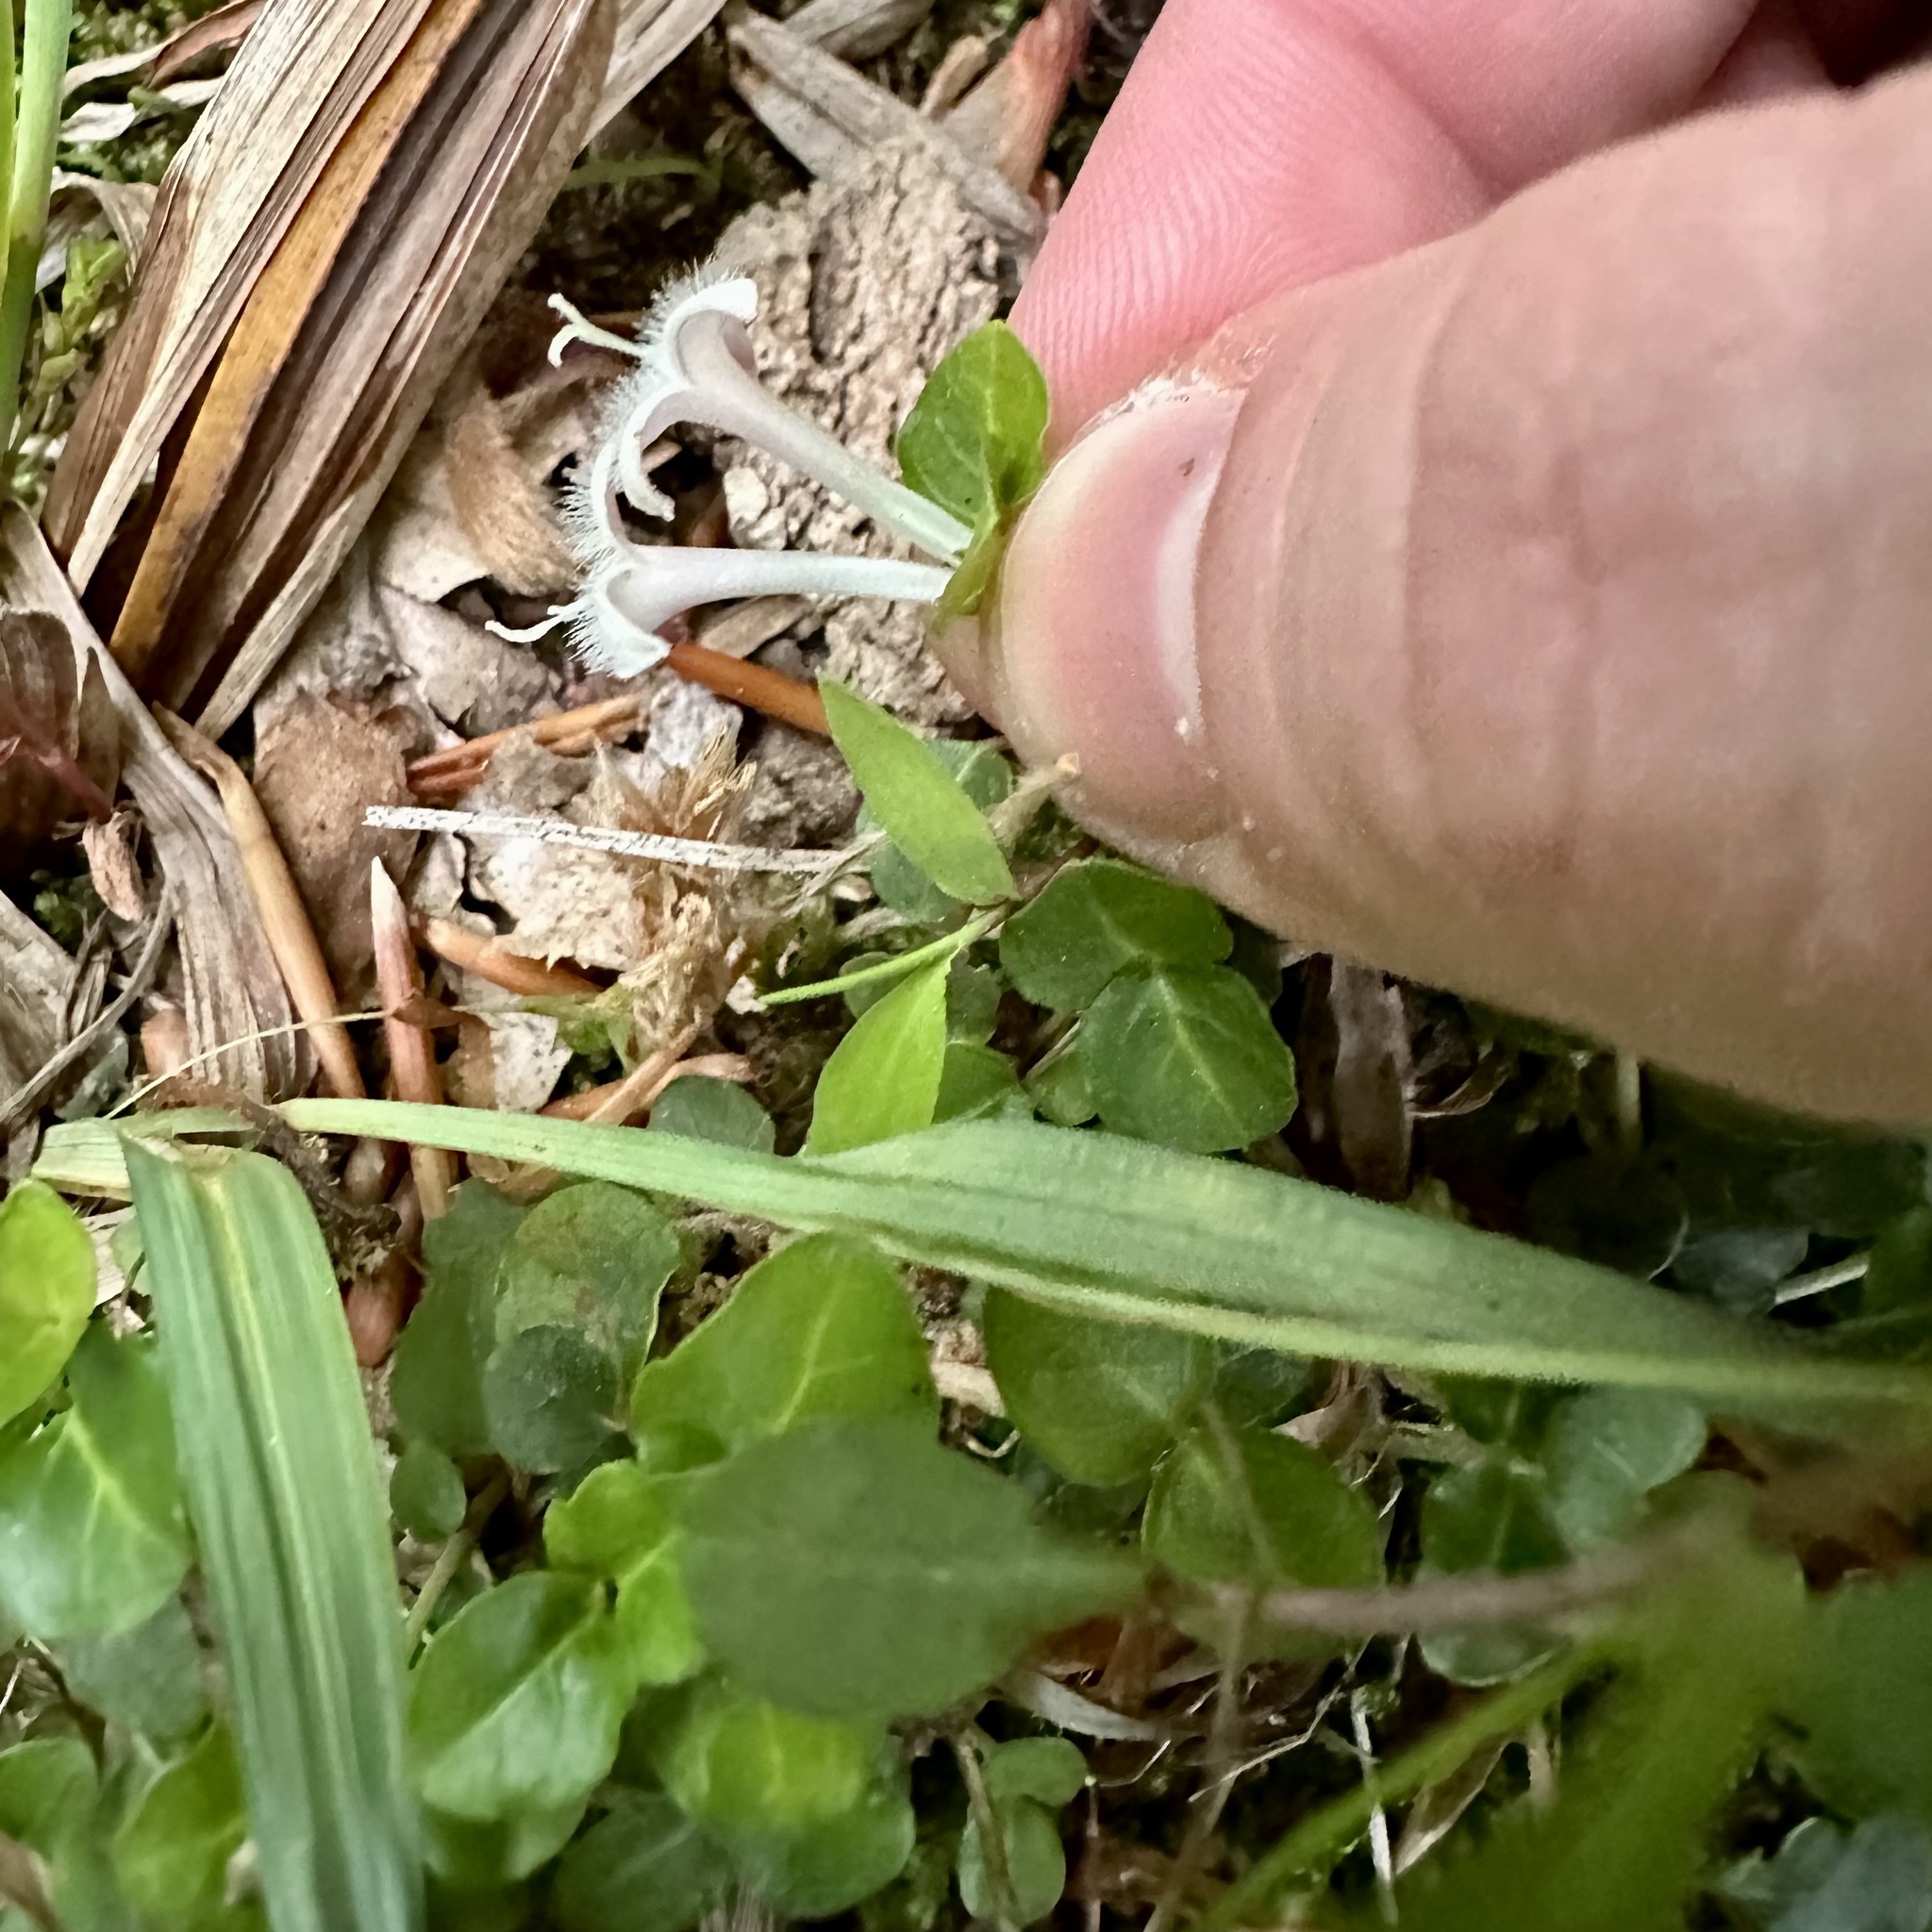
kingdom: Plantae
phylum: Tracheophyta
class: Magnoliopsida
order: Gentianales
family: Rubiaceae
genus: Mitchella
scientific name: Mitchella repens
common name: Partridge-berry
